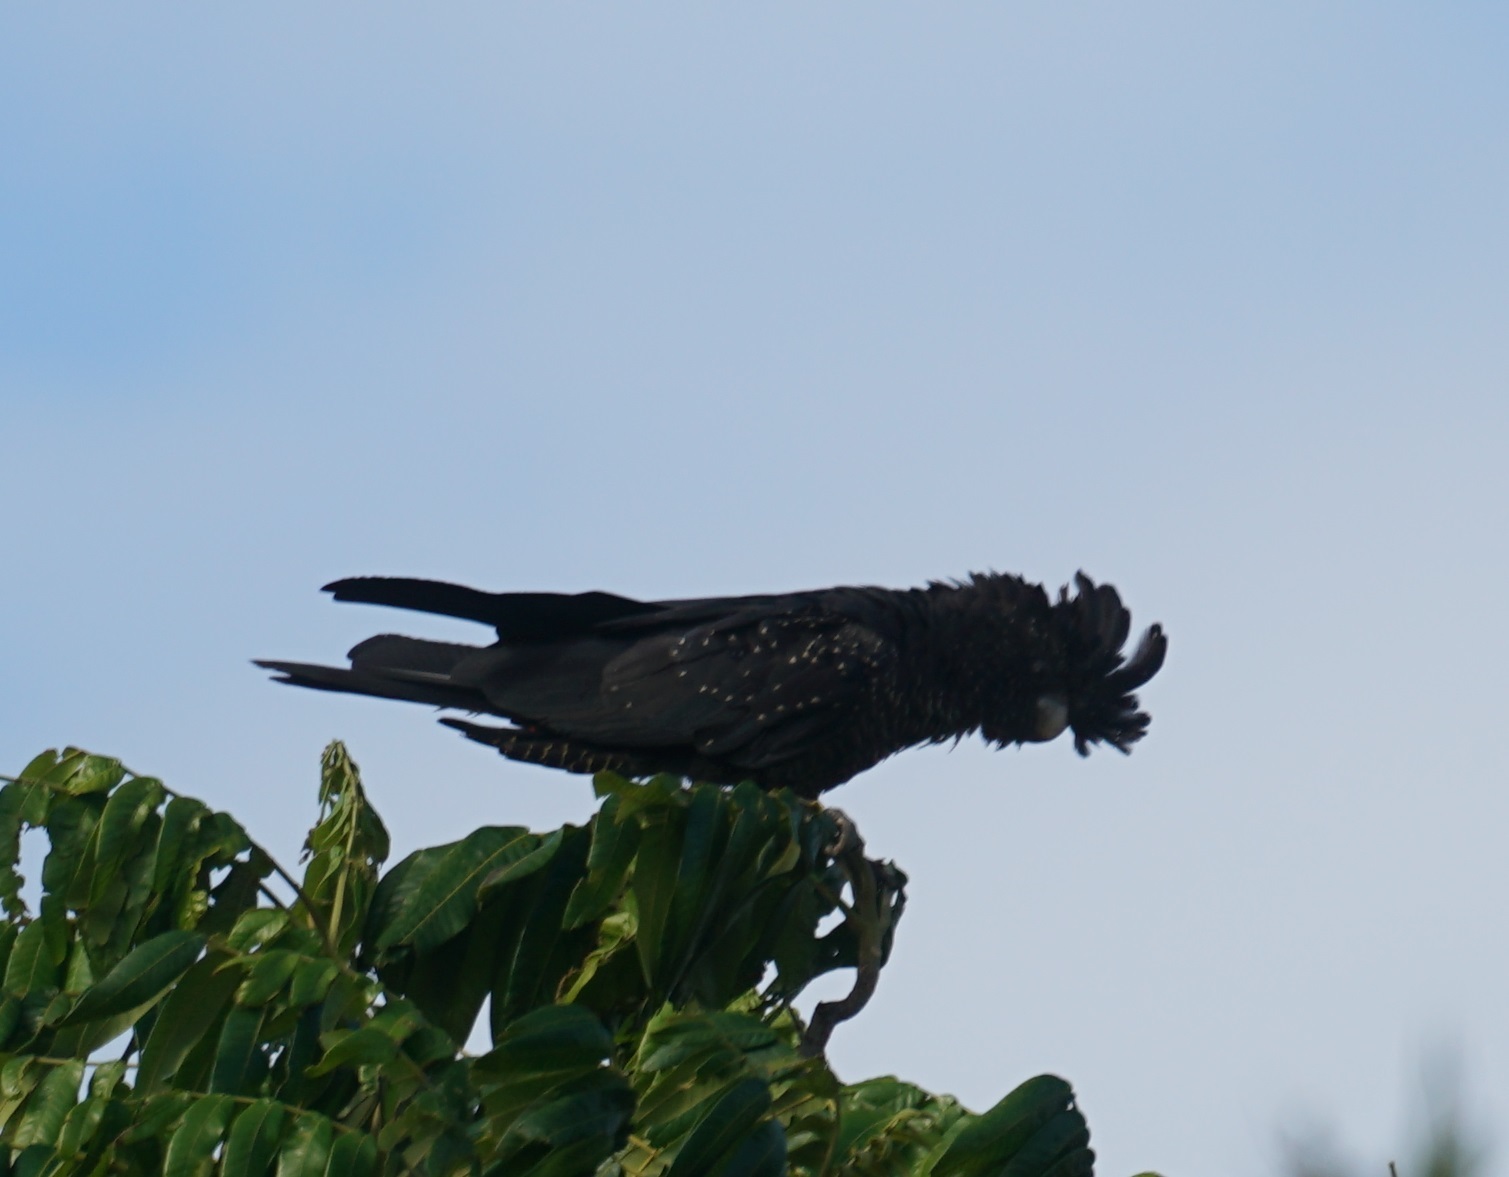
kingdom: Animalia
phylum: Chordata
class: Aves
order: Psittaciformes
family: Psittacidae
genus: Calyptorhynchus
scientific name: Calyptorhynchus banksii
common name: Red-tailed black cockatoo
